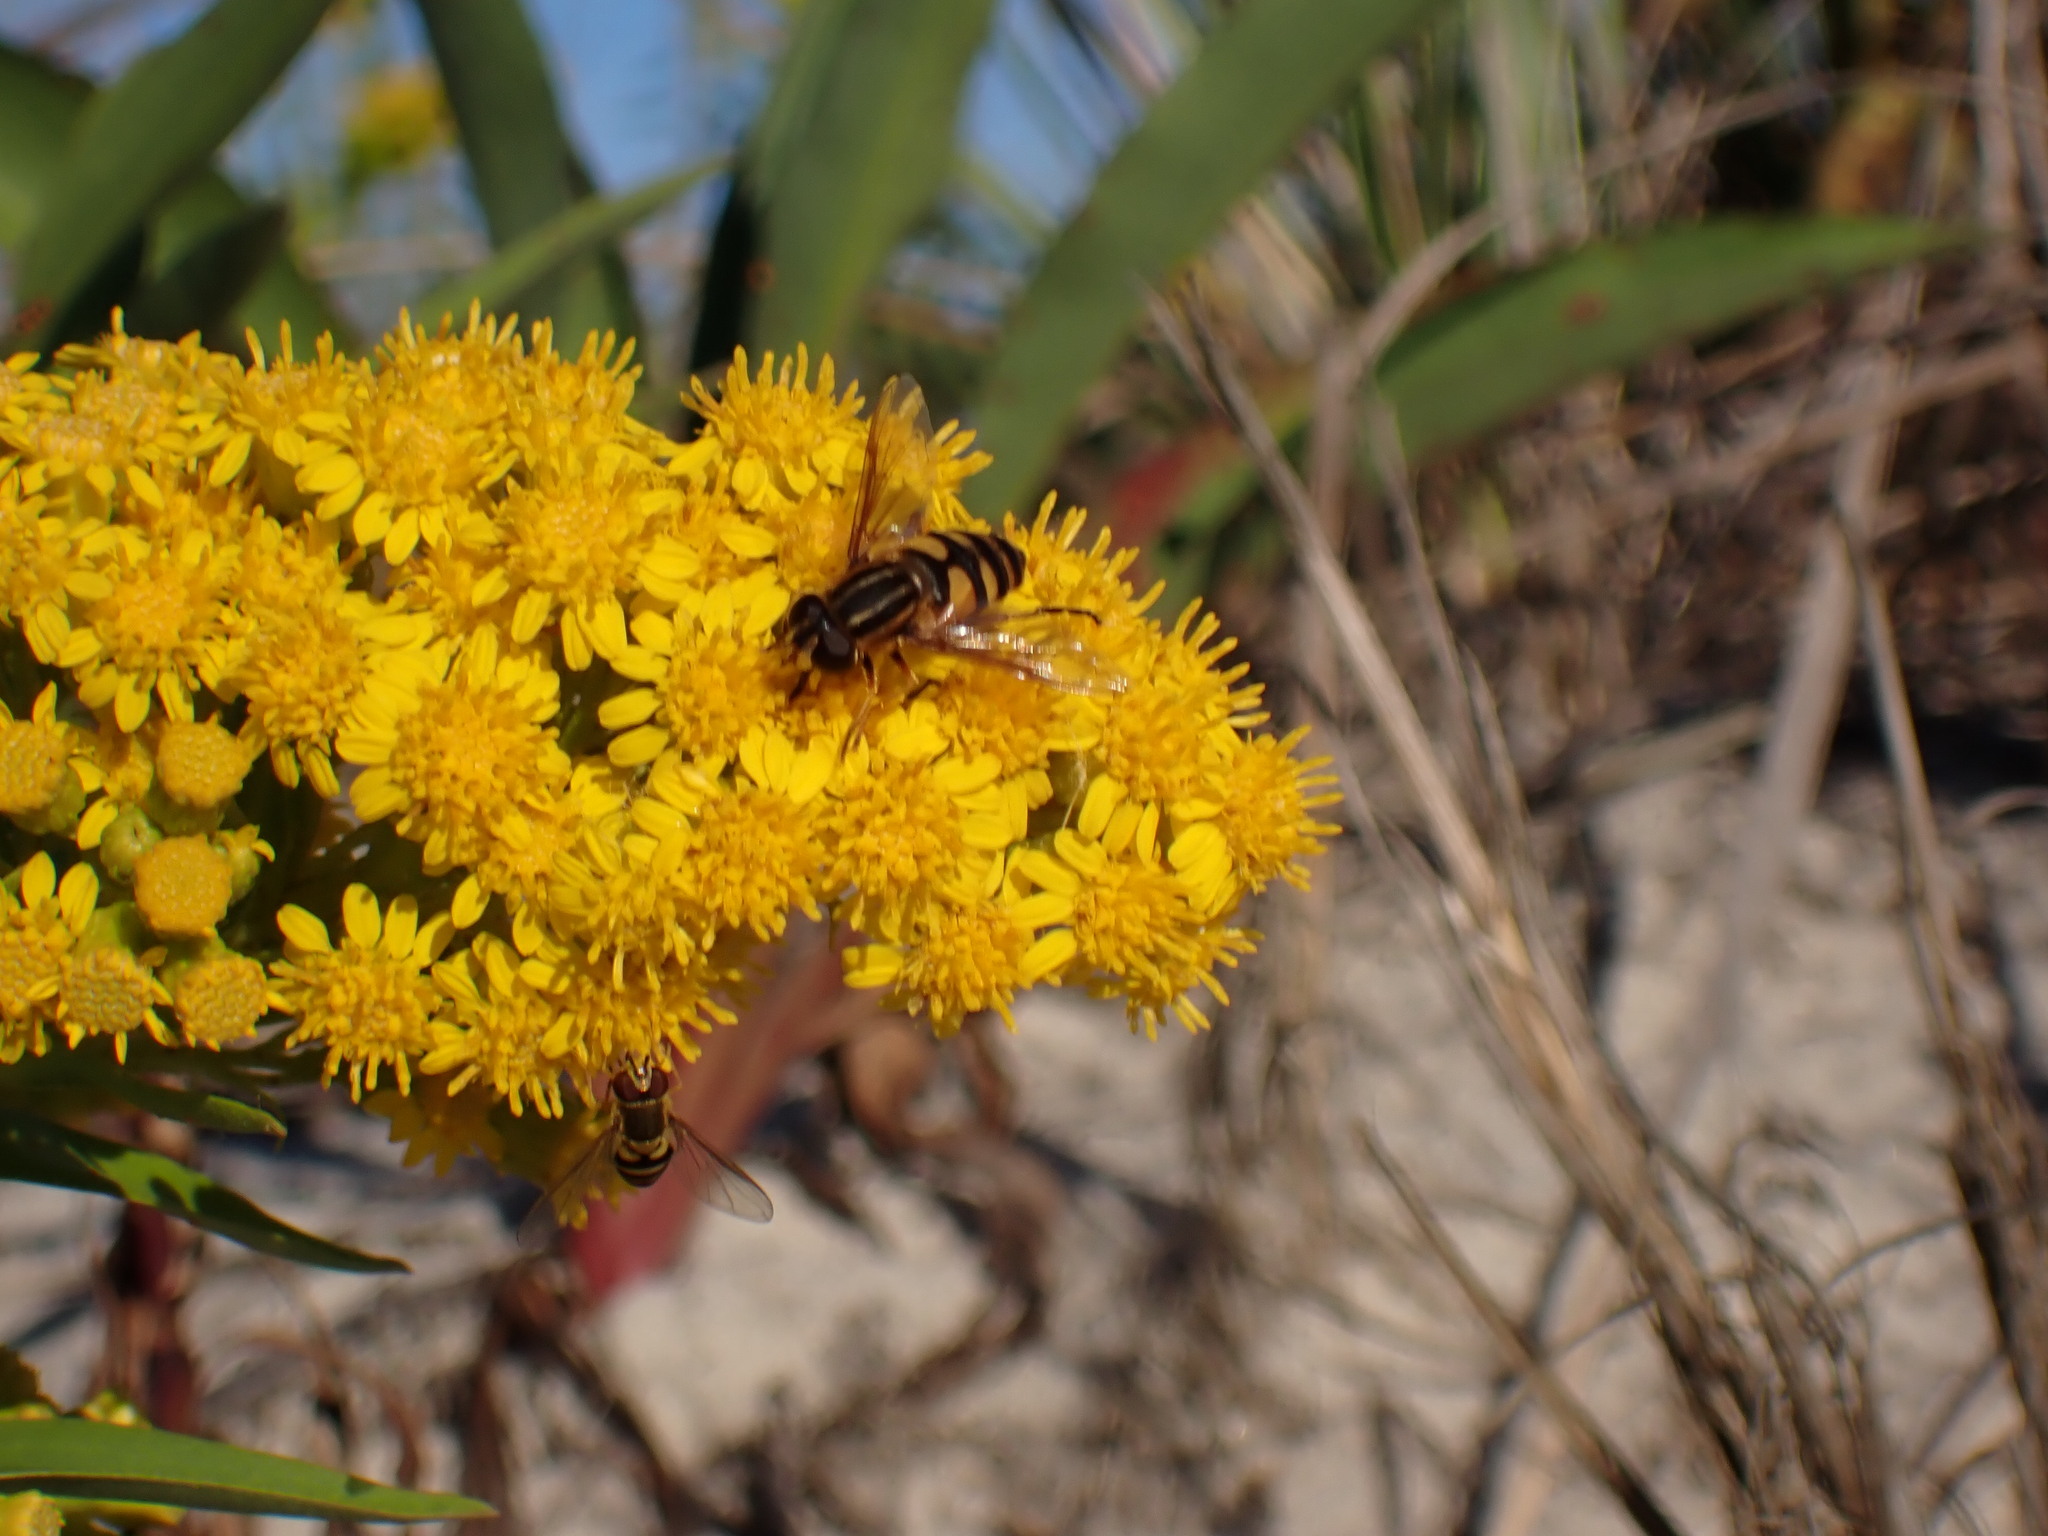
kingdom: Animalia
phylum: Arthropoda
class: Insecta
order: Diptera
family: Syrphidae
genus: Helophilus
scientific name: Helophilus fasciatus
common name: Narrow-headed marsh fly
